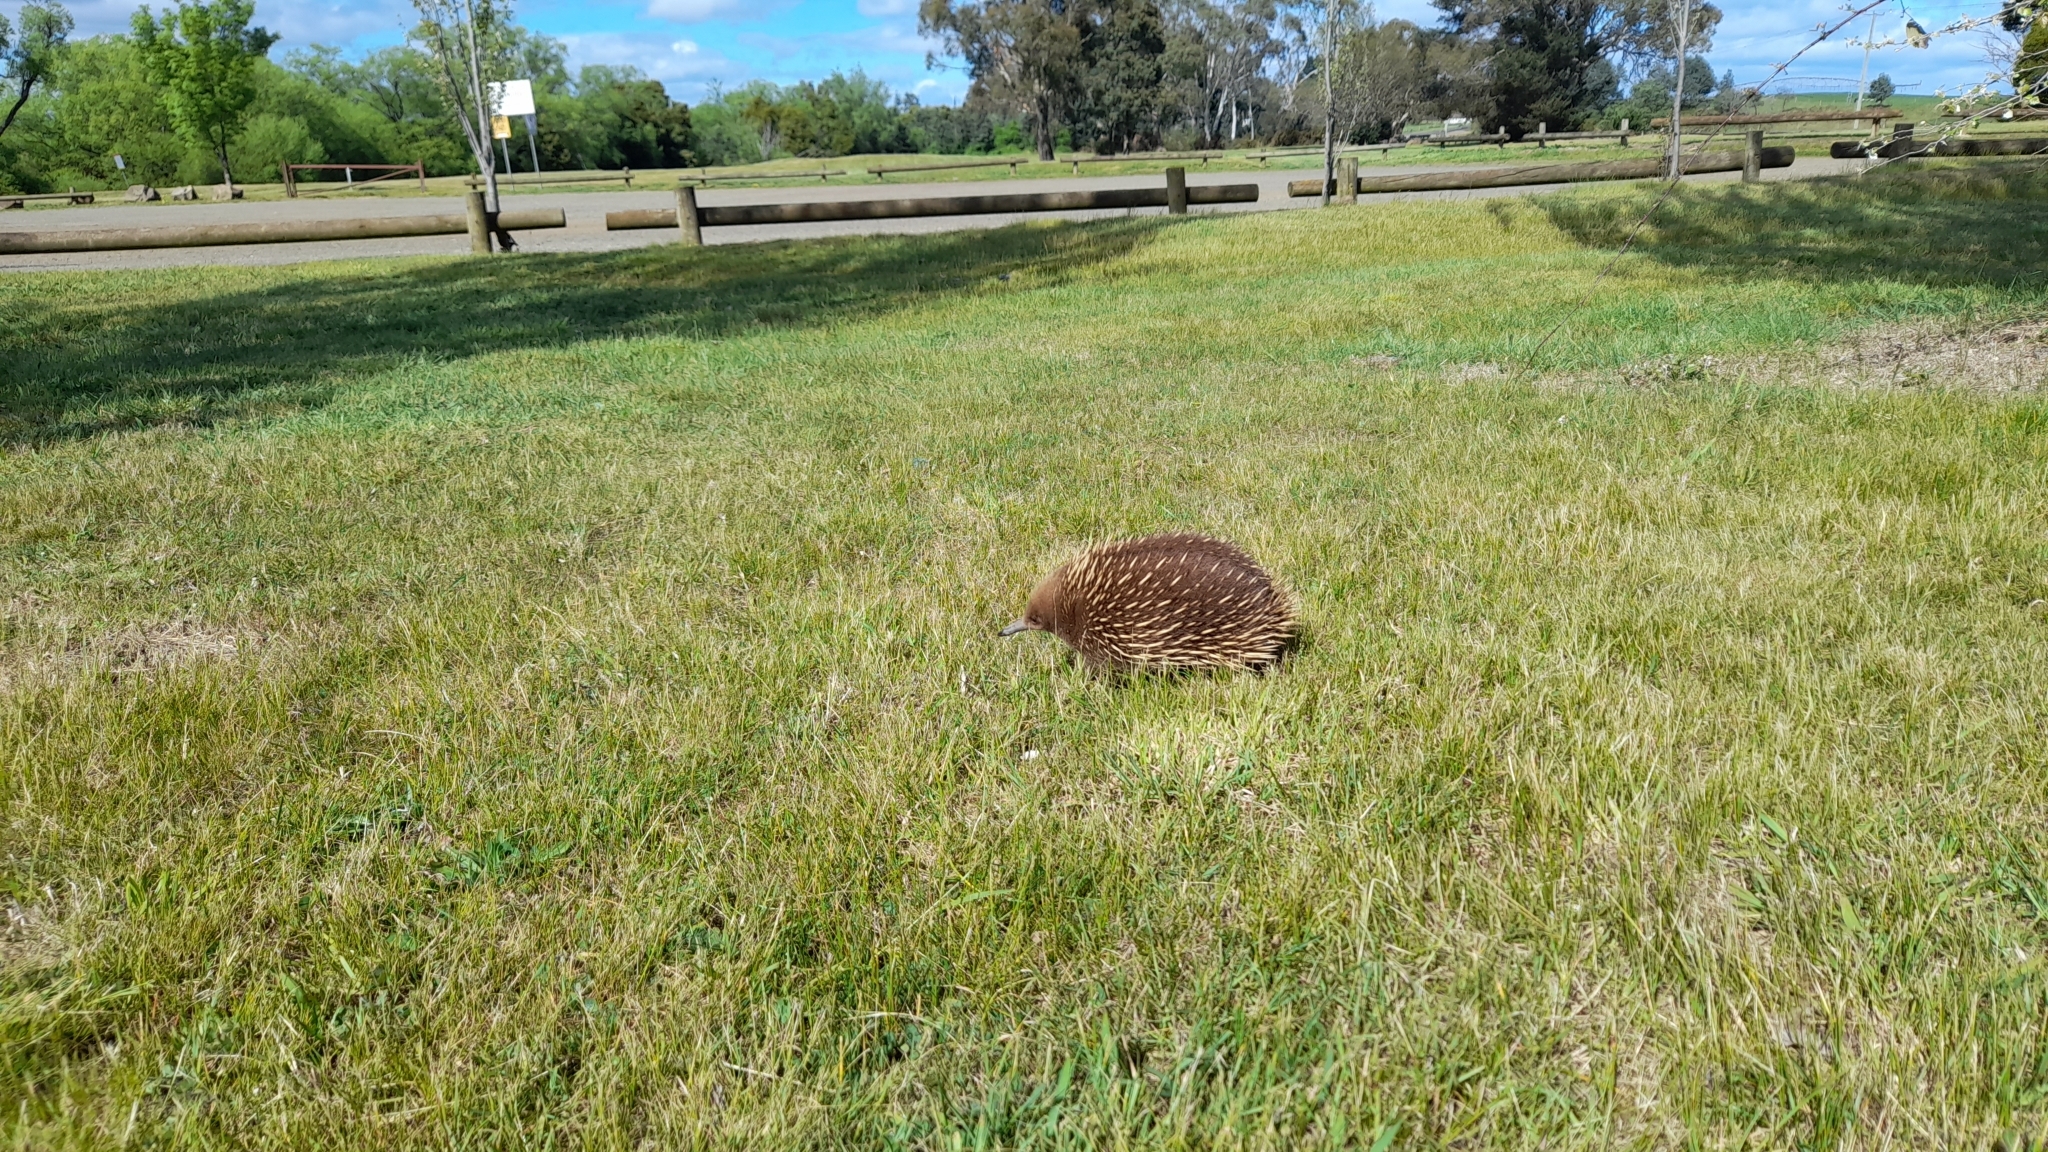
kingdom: Animalia
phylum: Chordata
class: Mammalia
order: Monotremata
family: Tachyglossidae
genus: Tachyglossus
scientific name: Tachyglossus aculeatus
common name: Short-beaked echidna
